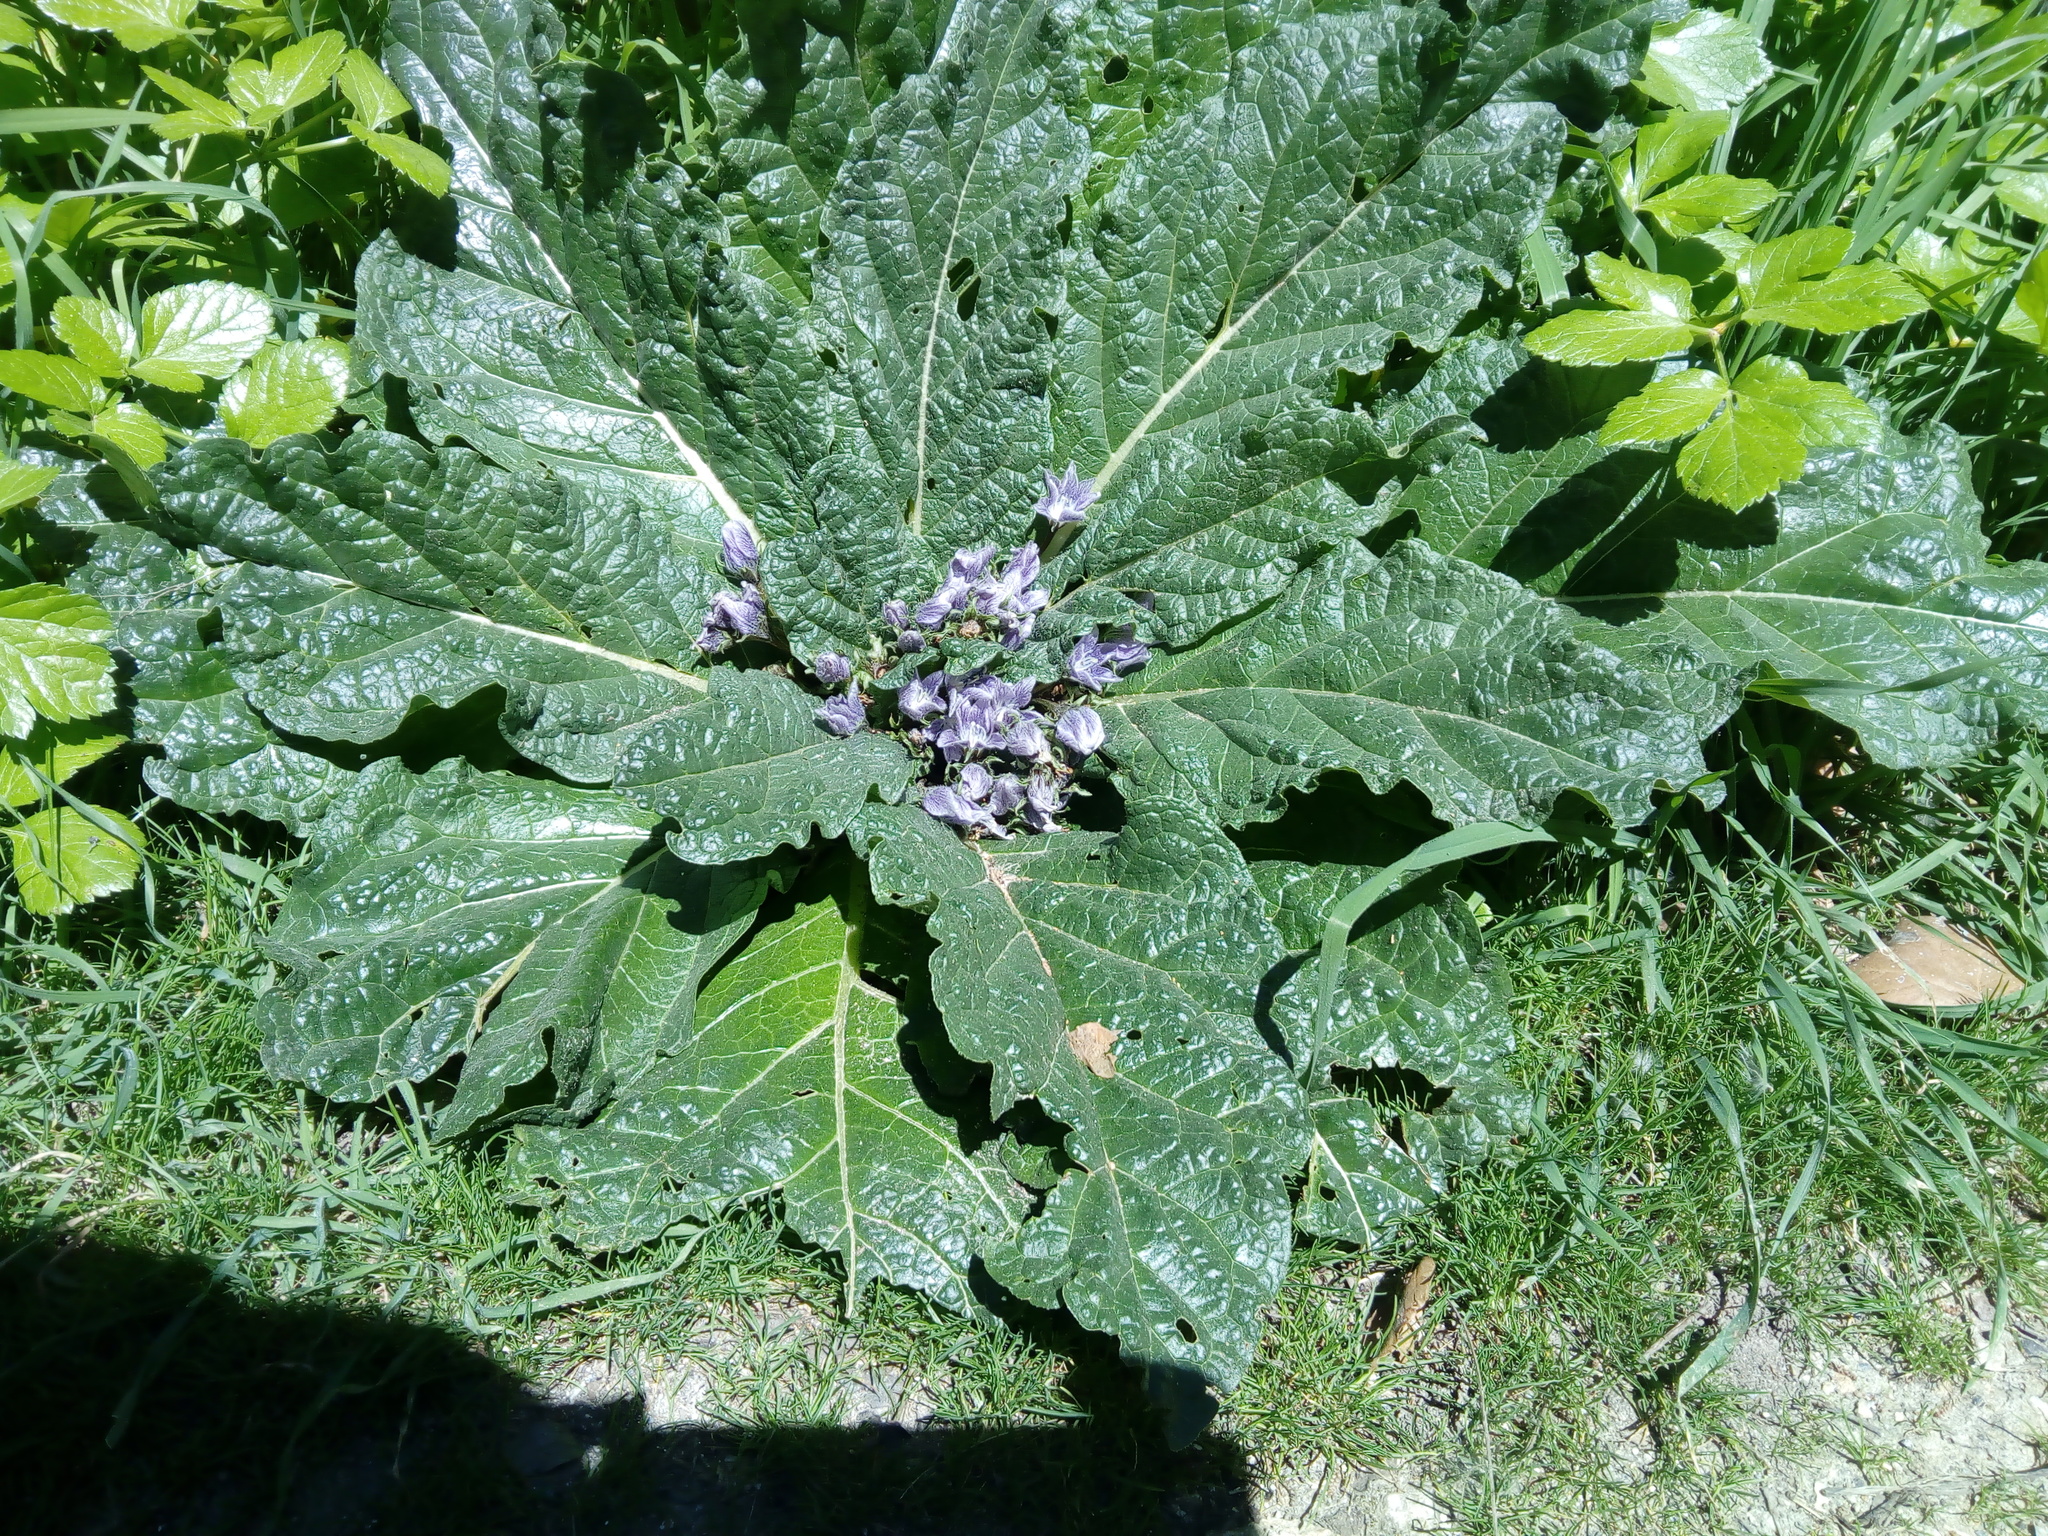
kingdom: Plantae
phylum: Tracheophyta
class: Magnoliopsida
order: Solanales
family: Solanaceae
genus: Mandragora
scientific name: Mandragora officinarum
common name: Mandrake
